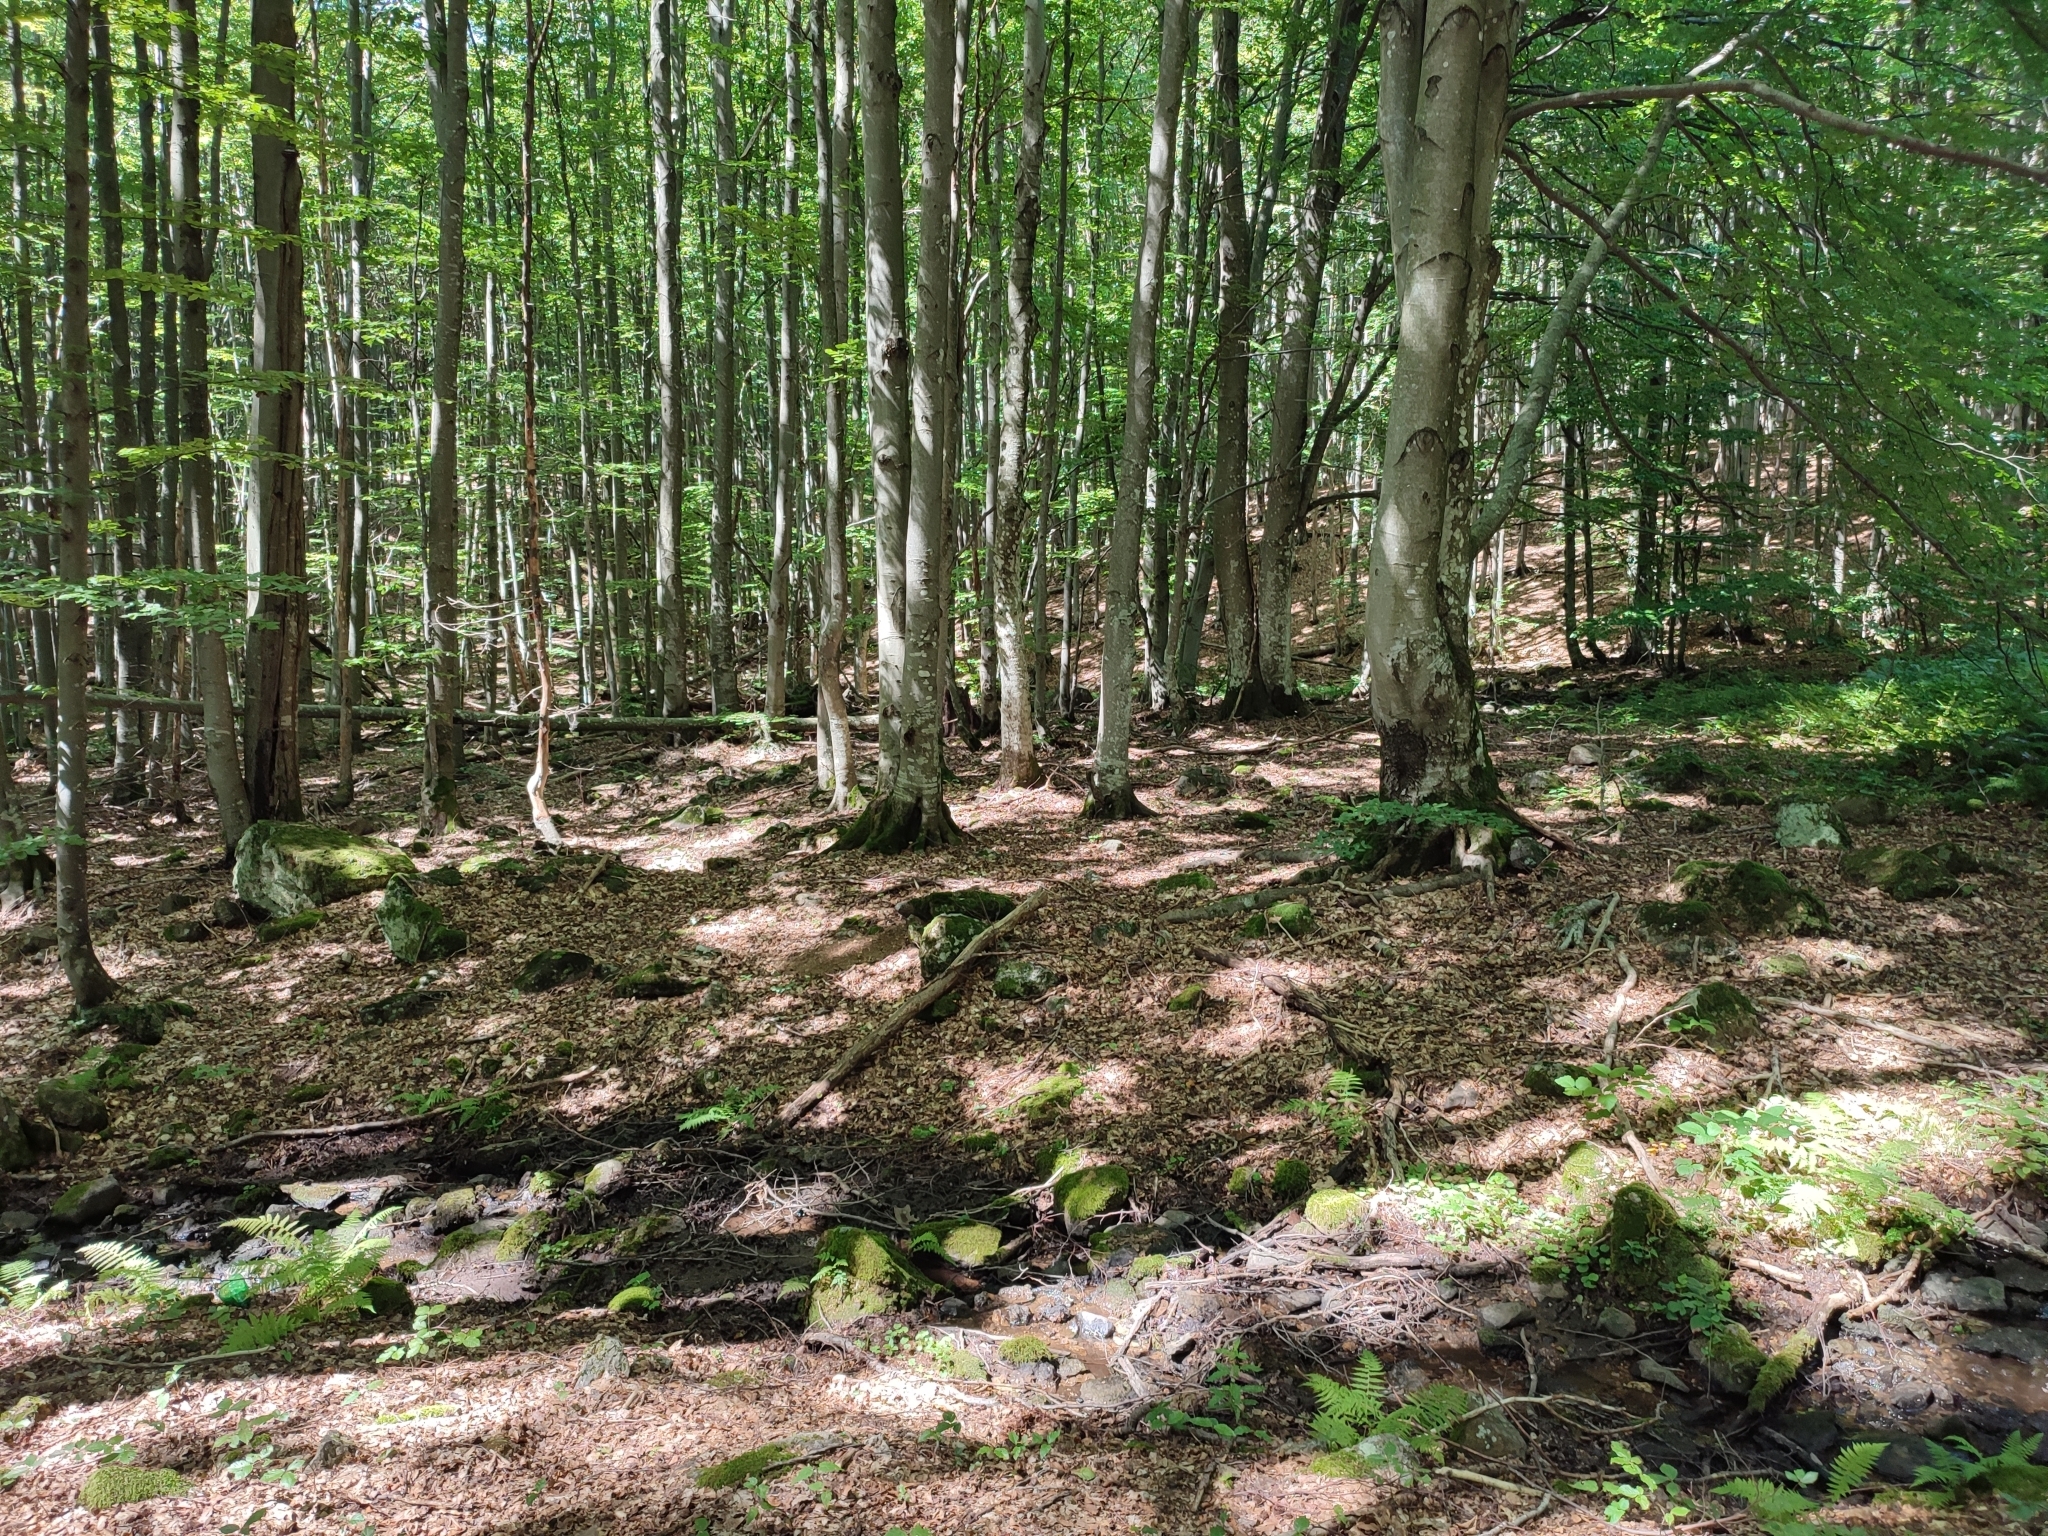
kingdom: Plantae
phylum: Tracheophyta
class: Magnoliopsida
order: Fagales
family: Fagaceae
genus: Fagus
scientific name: Fagus sylvatica
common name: Beech
